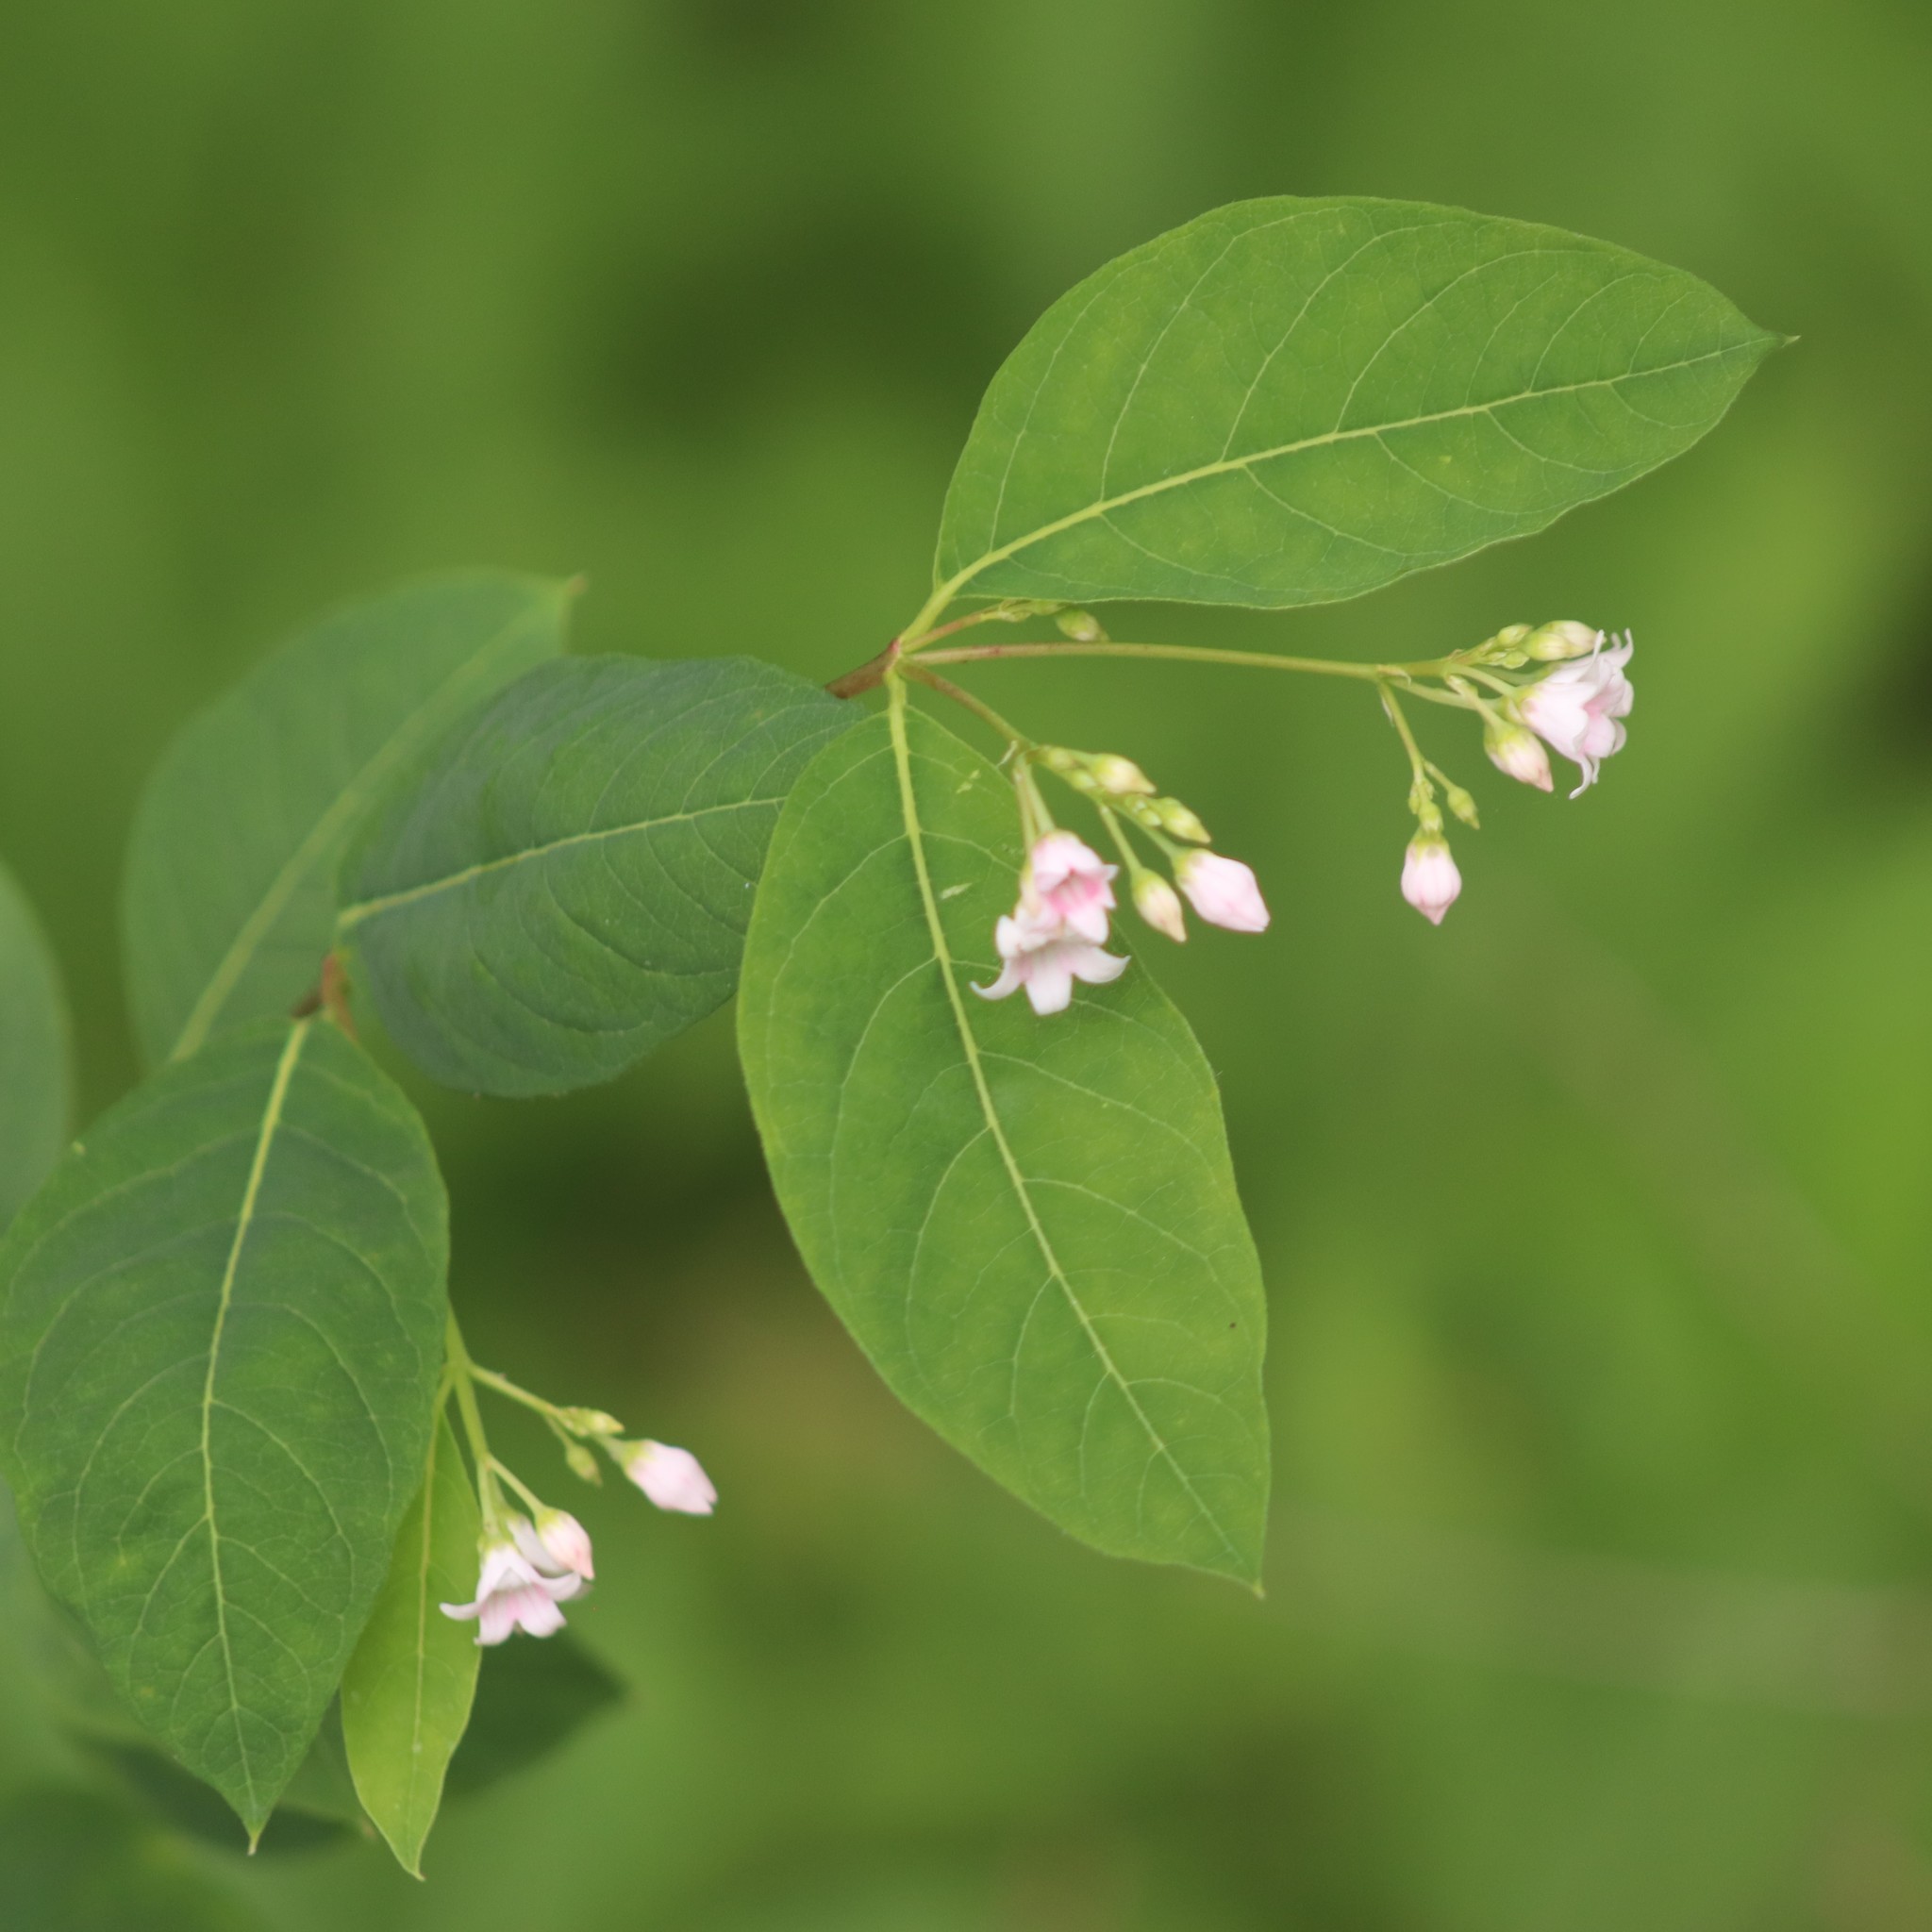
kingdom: Plantae
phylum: Tracheophyta
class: Magnoliopsida
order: Gentianales
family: Apocynaceae
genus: Apocynum
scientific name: Apocynum androsaemifolium
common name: Spreading dogbane
